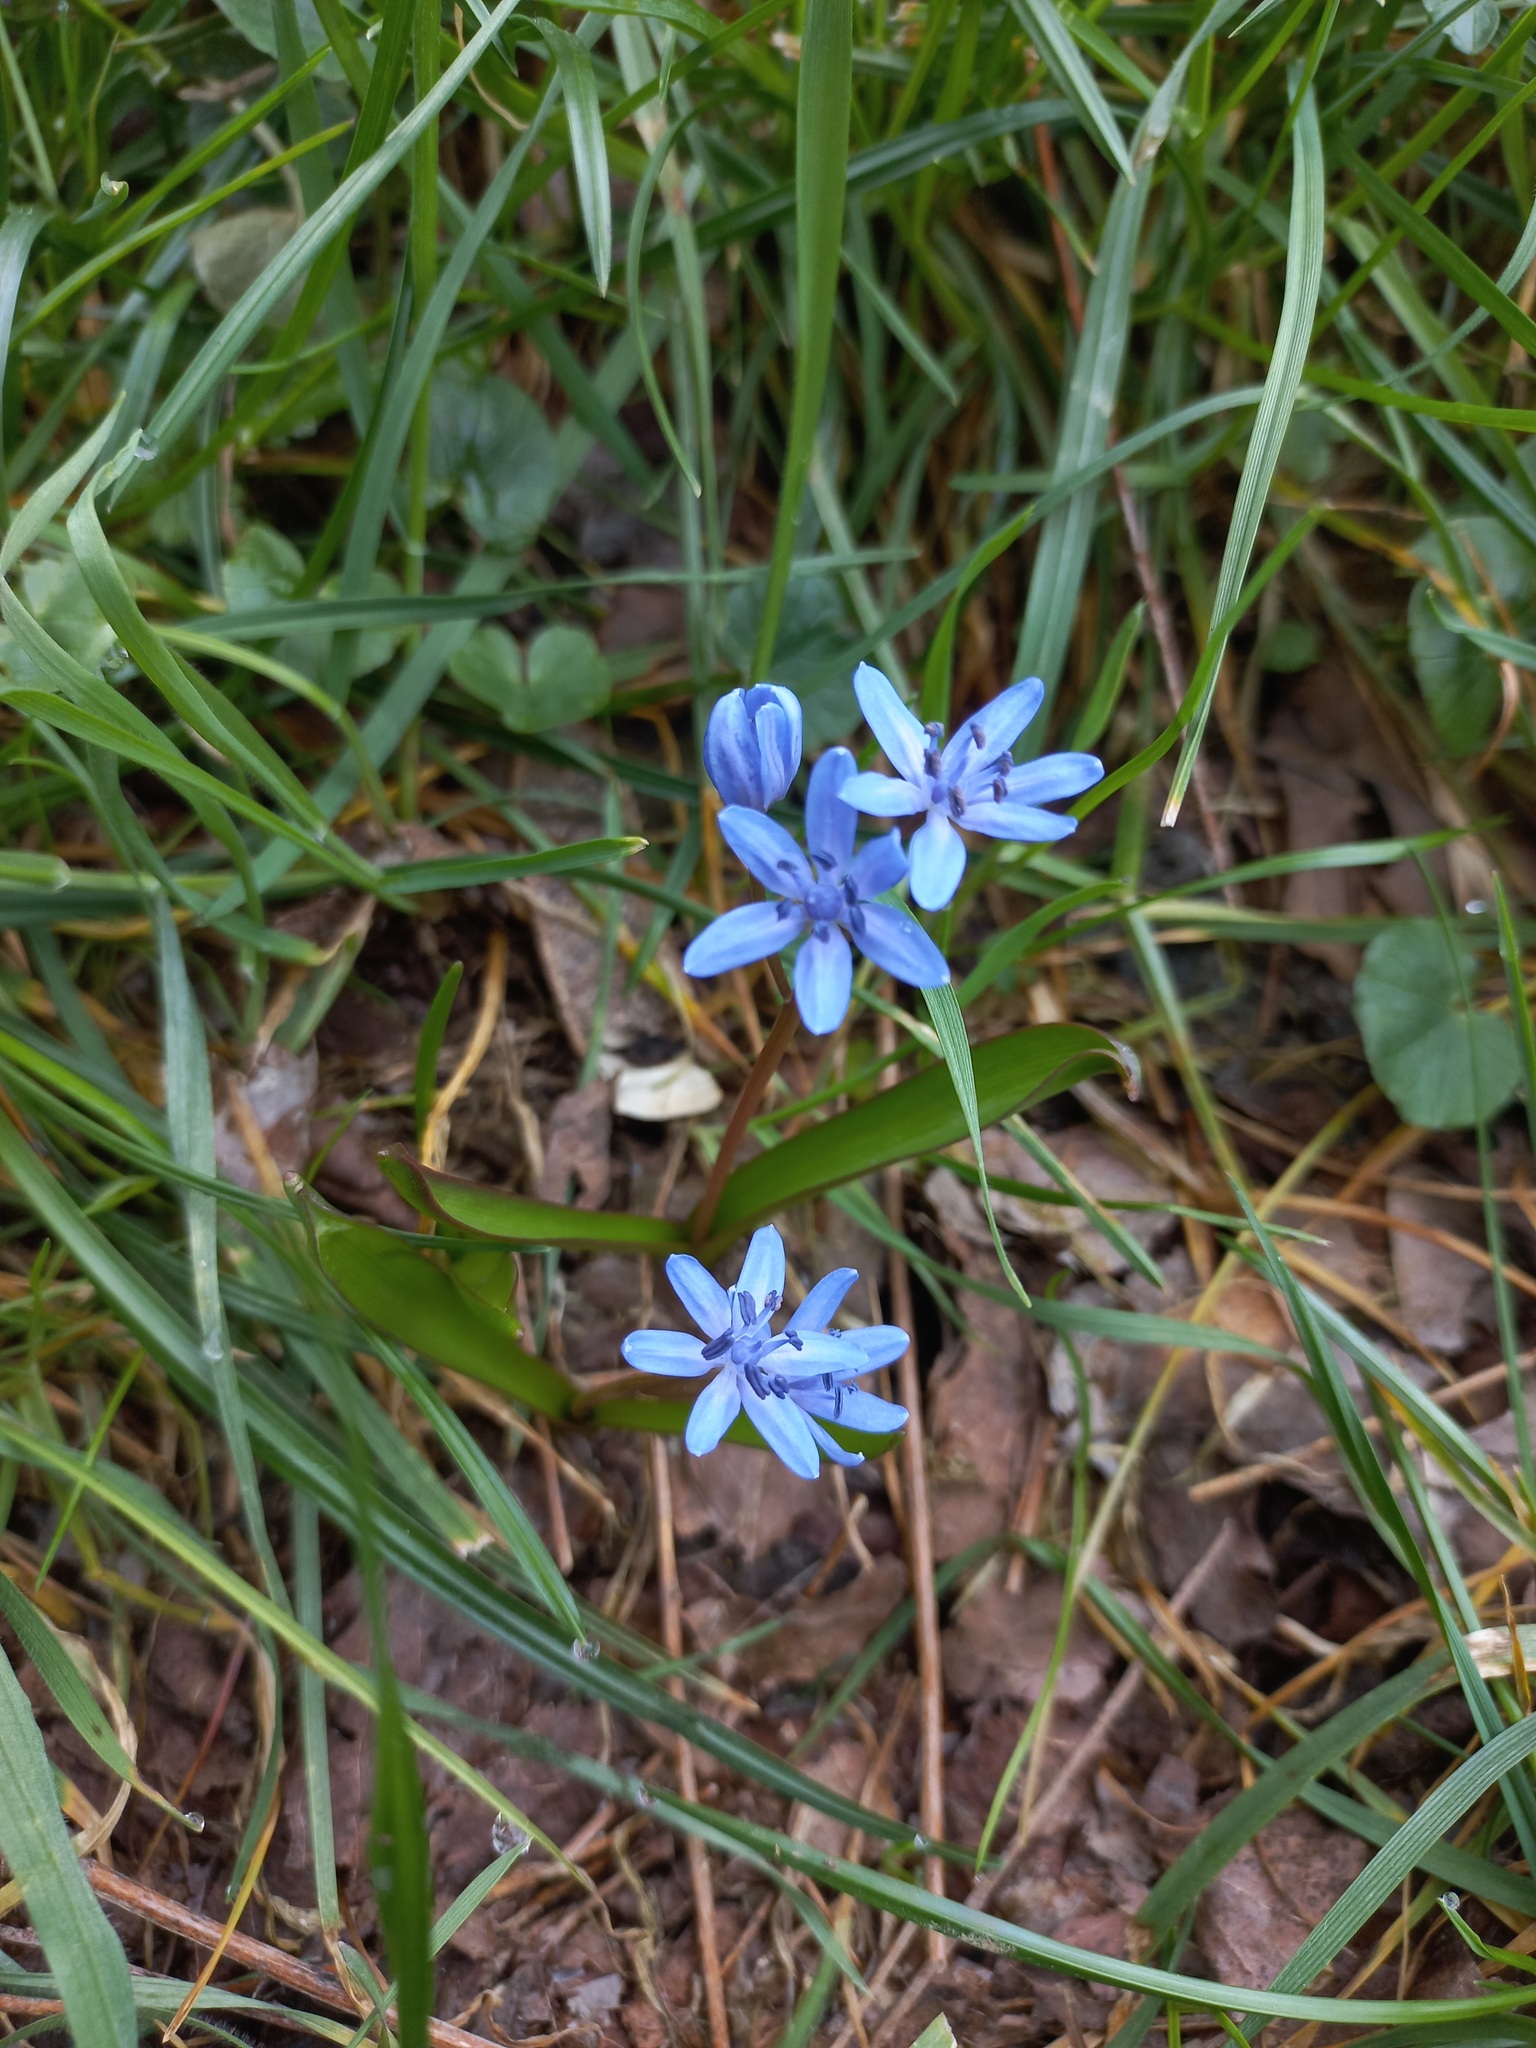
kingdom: Plantae
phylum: Tracheophyta
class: Liliopsida
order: Asparagales
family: Asparagaceae
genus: Scilla
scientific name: Scilla bifolia
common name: Alpine squill
